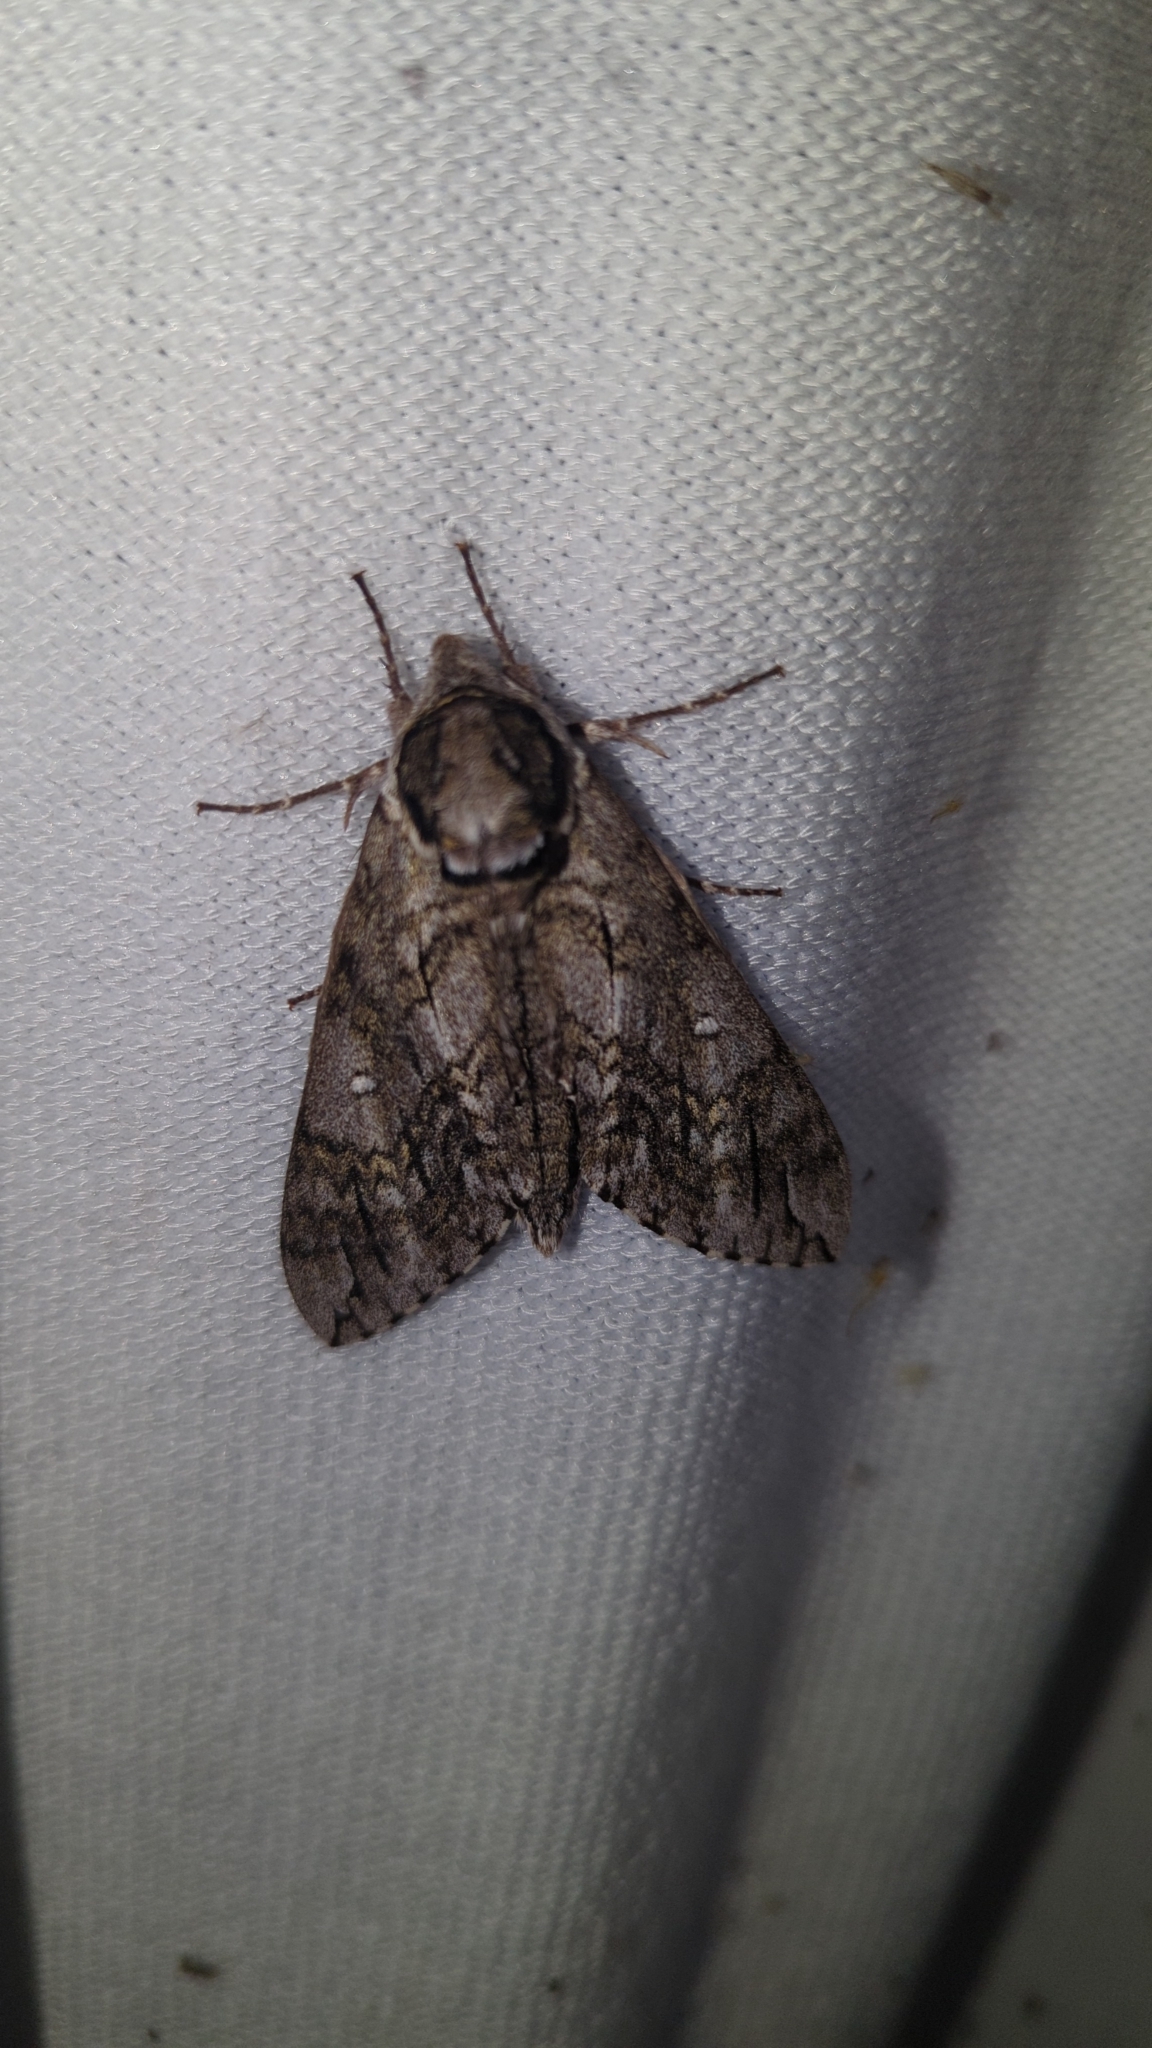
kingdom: Animalia
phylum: Arthropoda
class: Insecta
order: Lepidoptera
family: Sphingidae
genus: Ceratomia
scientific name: Ceratomia undulosa
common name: Waved sphinx
